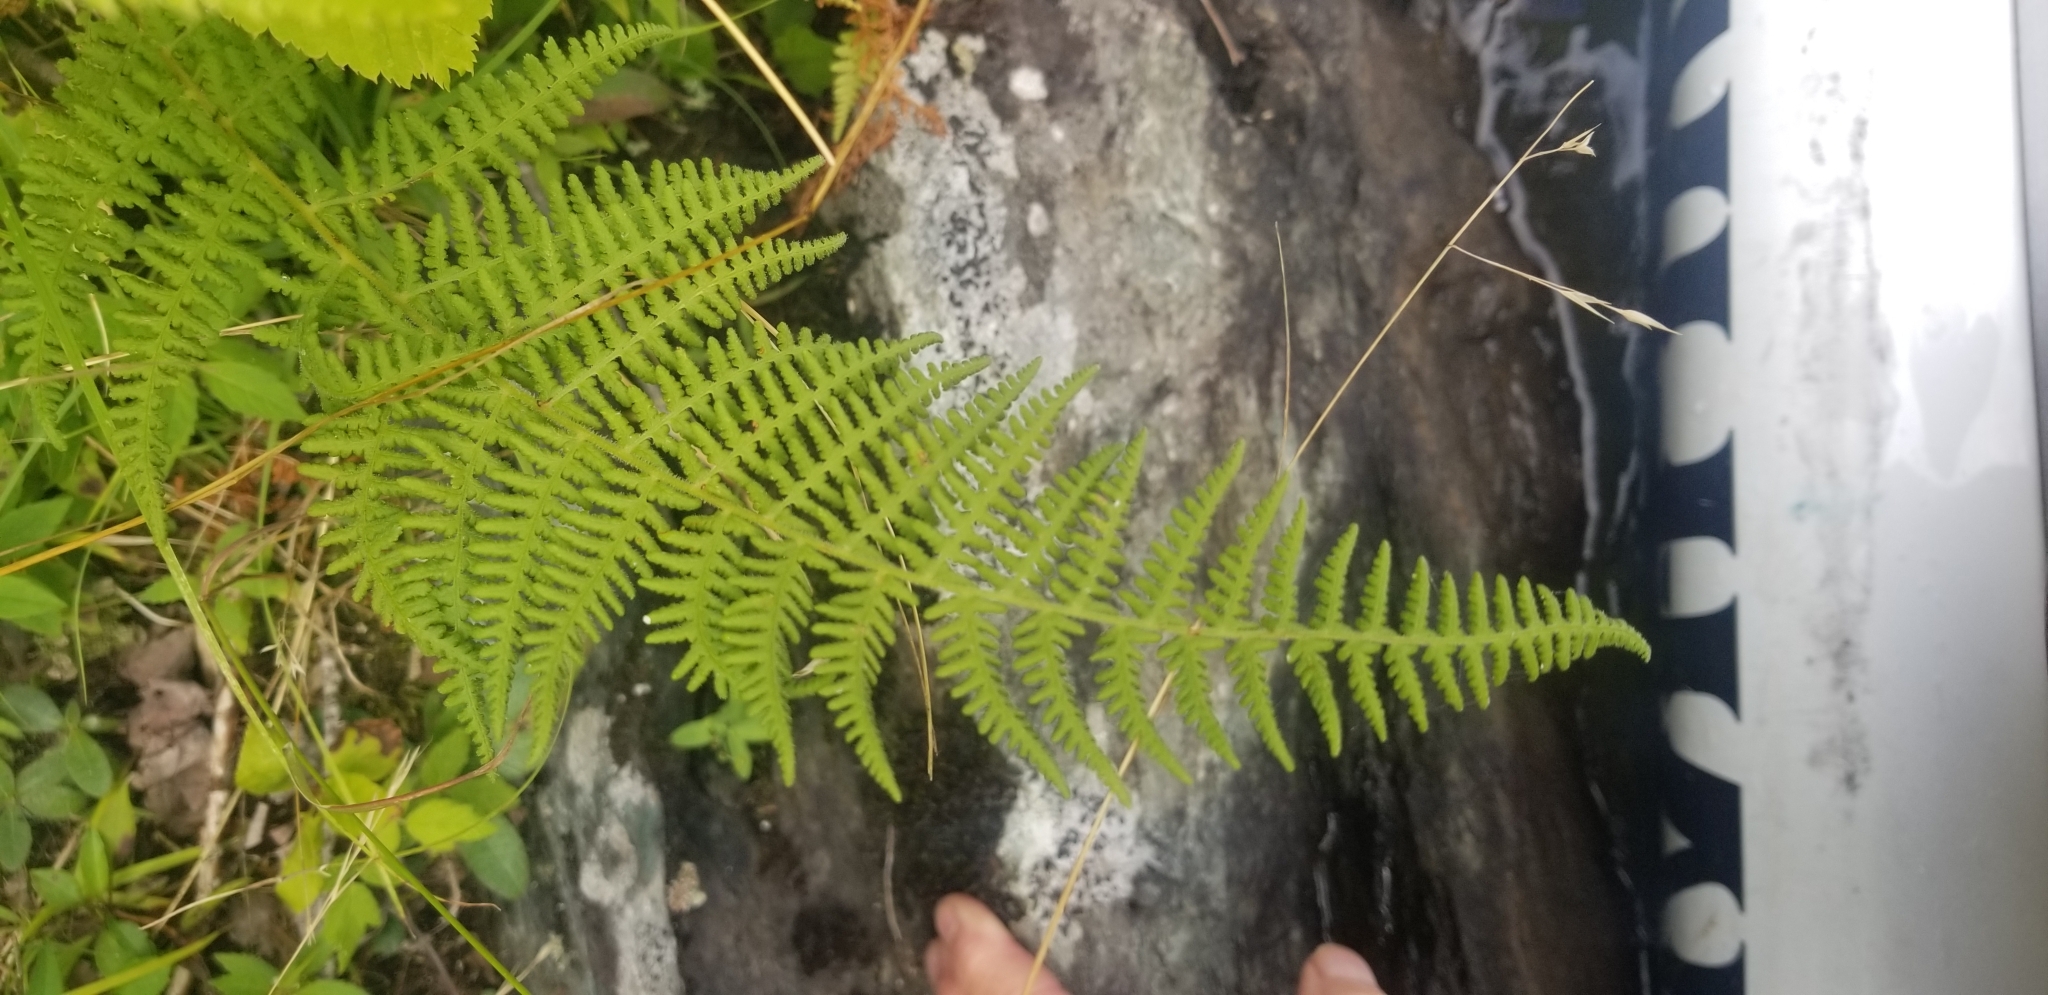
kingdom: Plantae
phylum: Tracheophyta
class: Polypodiopsida
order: Polypodiales
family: Dennstaedtiaceae
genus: Sitobolium
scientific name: Sitobolium punctilobum
